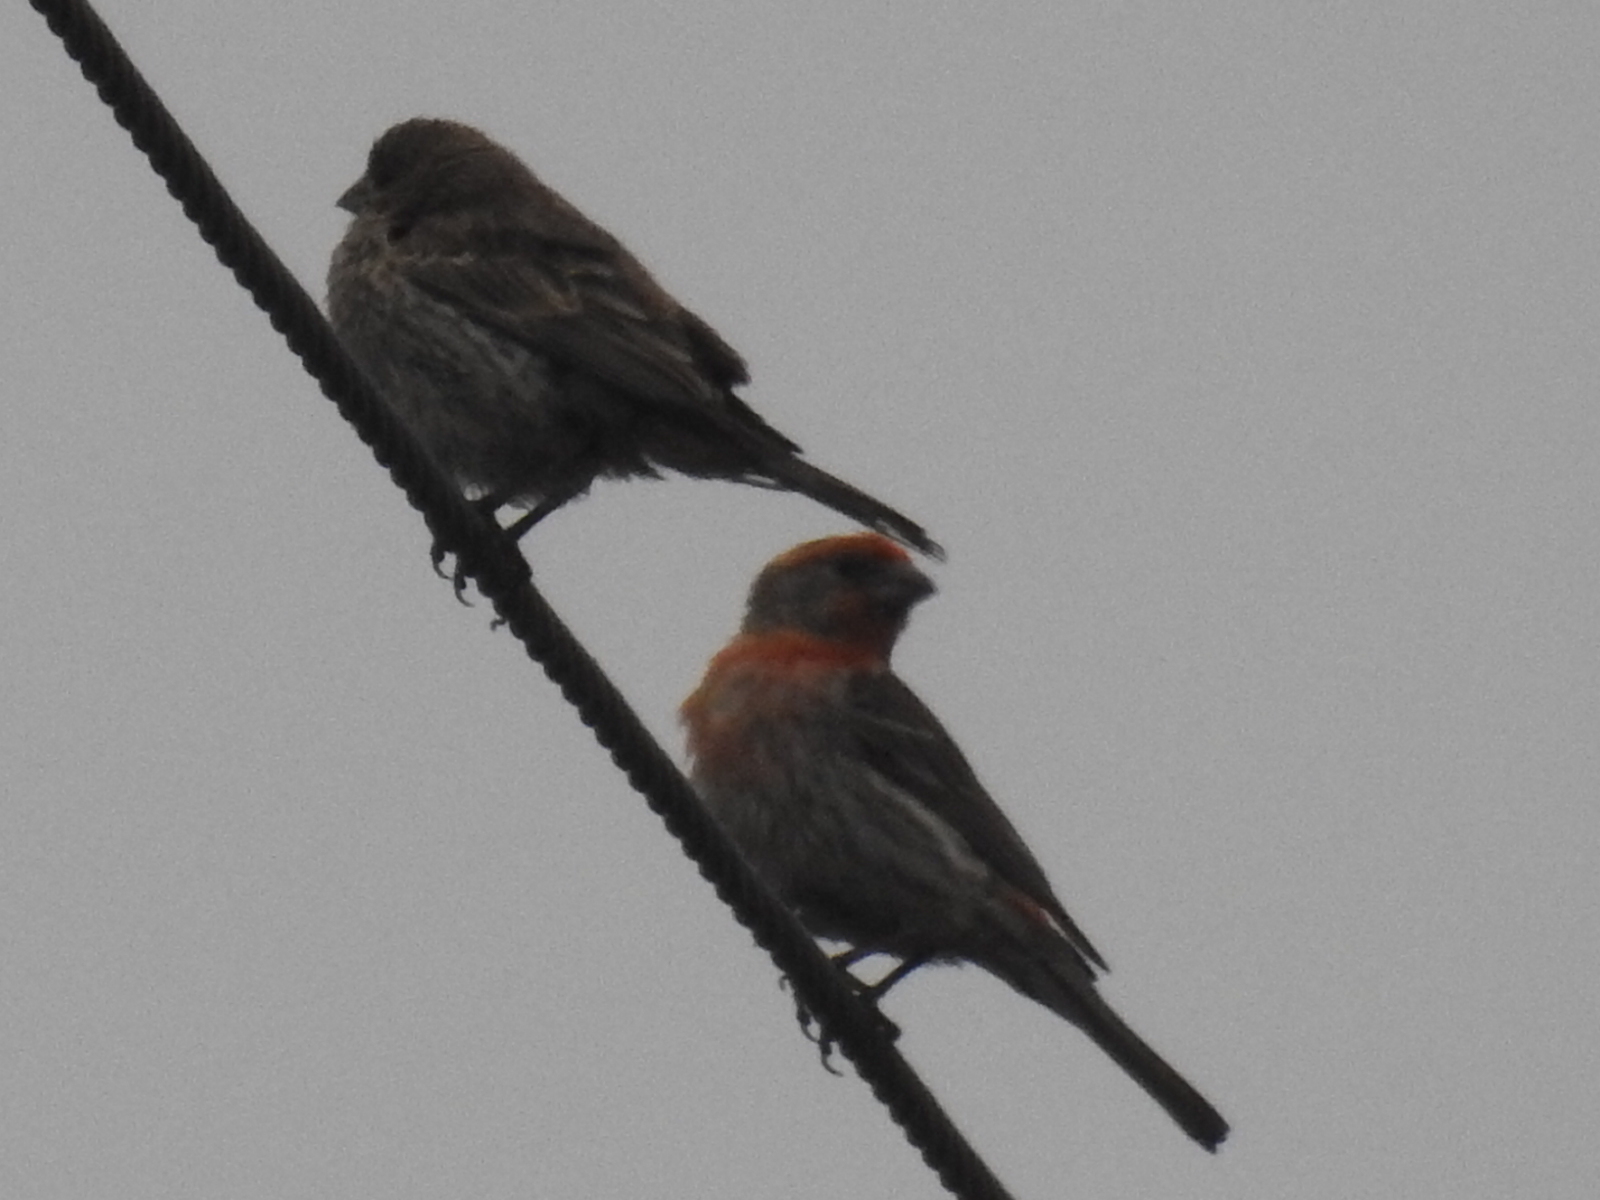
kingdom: Animalia
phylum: Chordata
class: Aves
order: Passeriformes
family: Fringillidae
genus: Haemorhous
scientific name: Haemorhous mexicanus
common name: House finch
